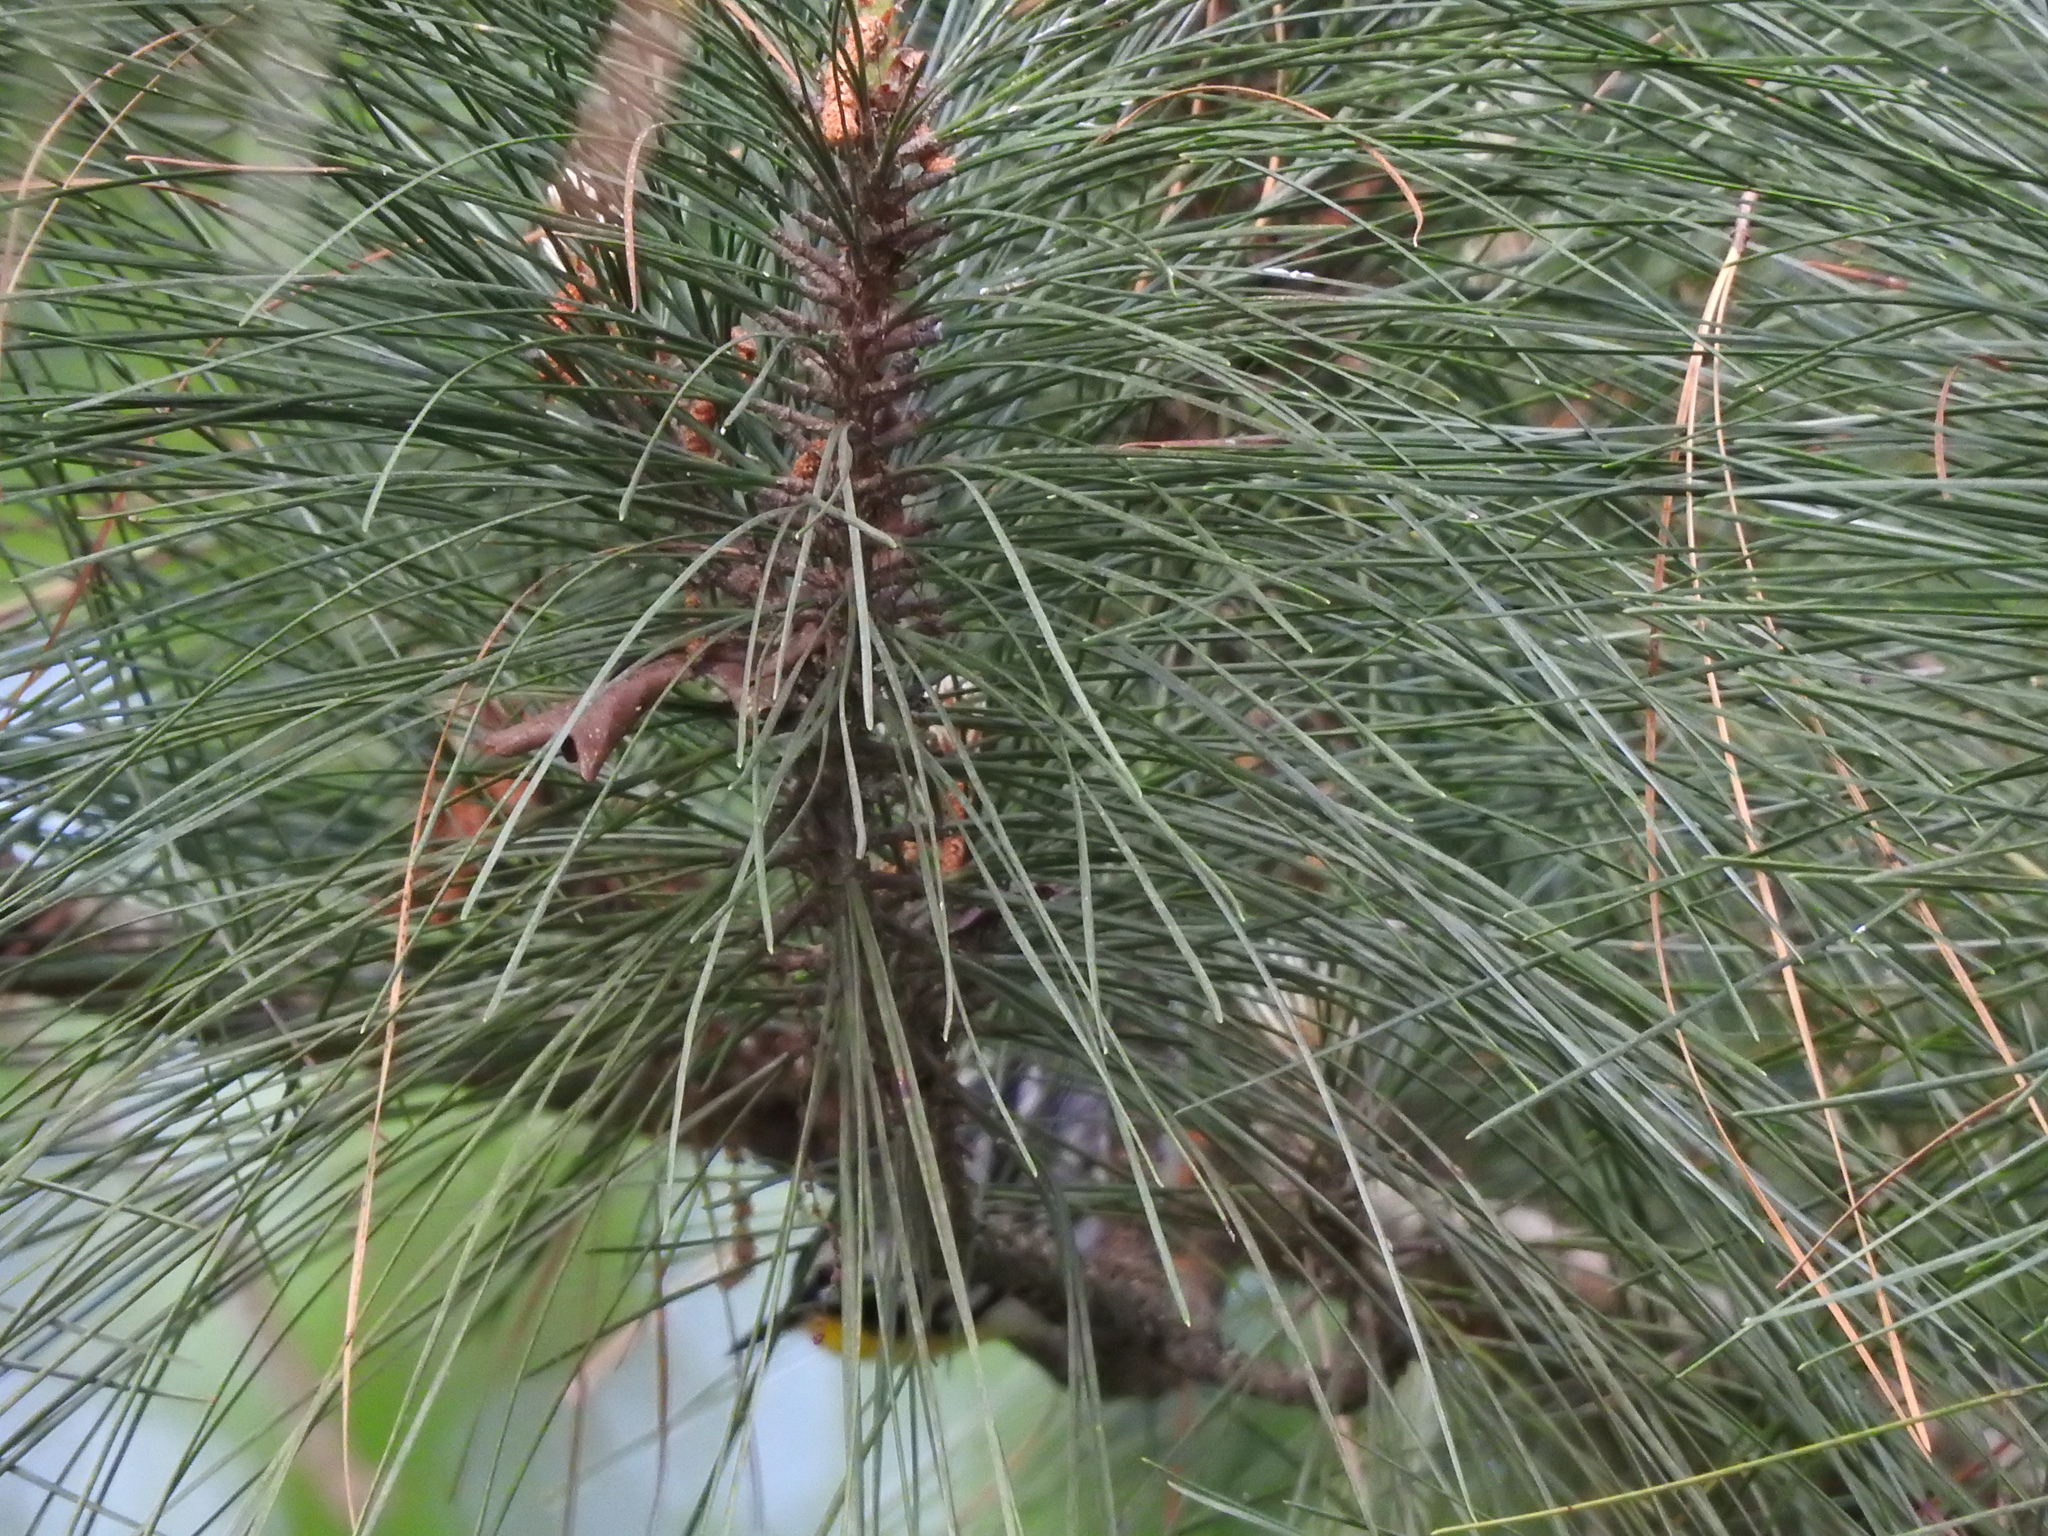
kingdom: Animalia
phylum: Chordata
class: Aves
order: Passeriformes
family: Parulidae
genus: Setophaga
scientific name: Setophaga dominica
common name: Yellow-throated warbler
